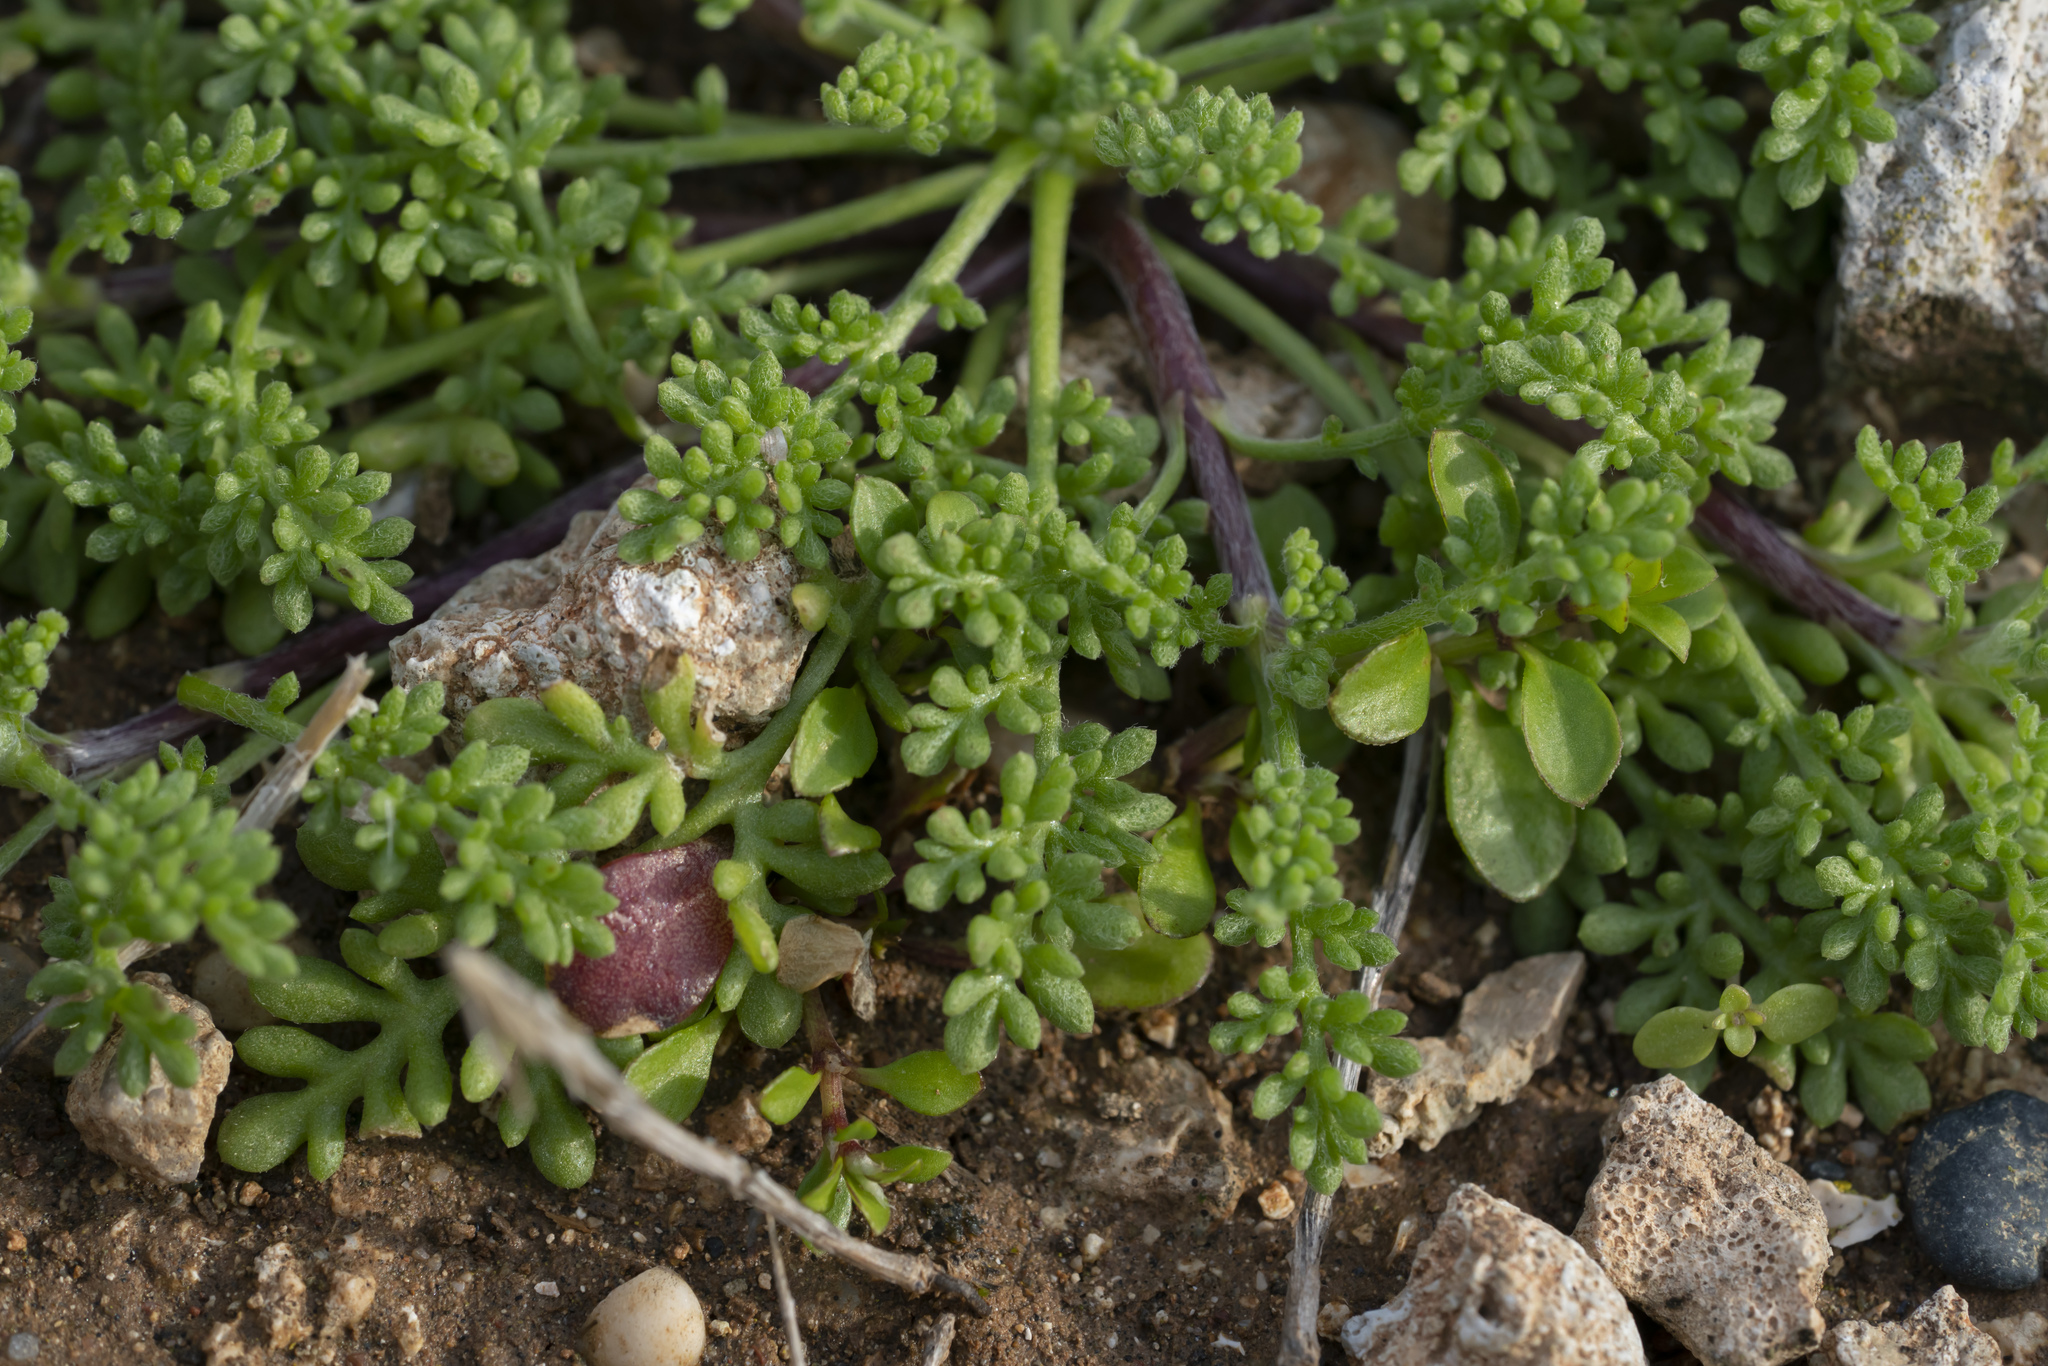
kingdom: Plantae
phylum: Tracheophyta
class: Magnoliopsida
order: Asterales
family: Asteraceae
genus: Anthemis
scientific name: Anthemis rigida
